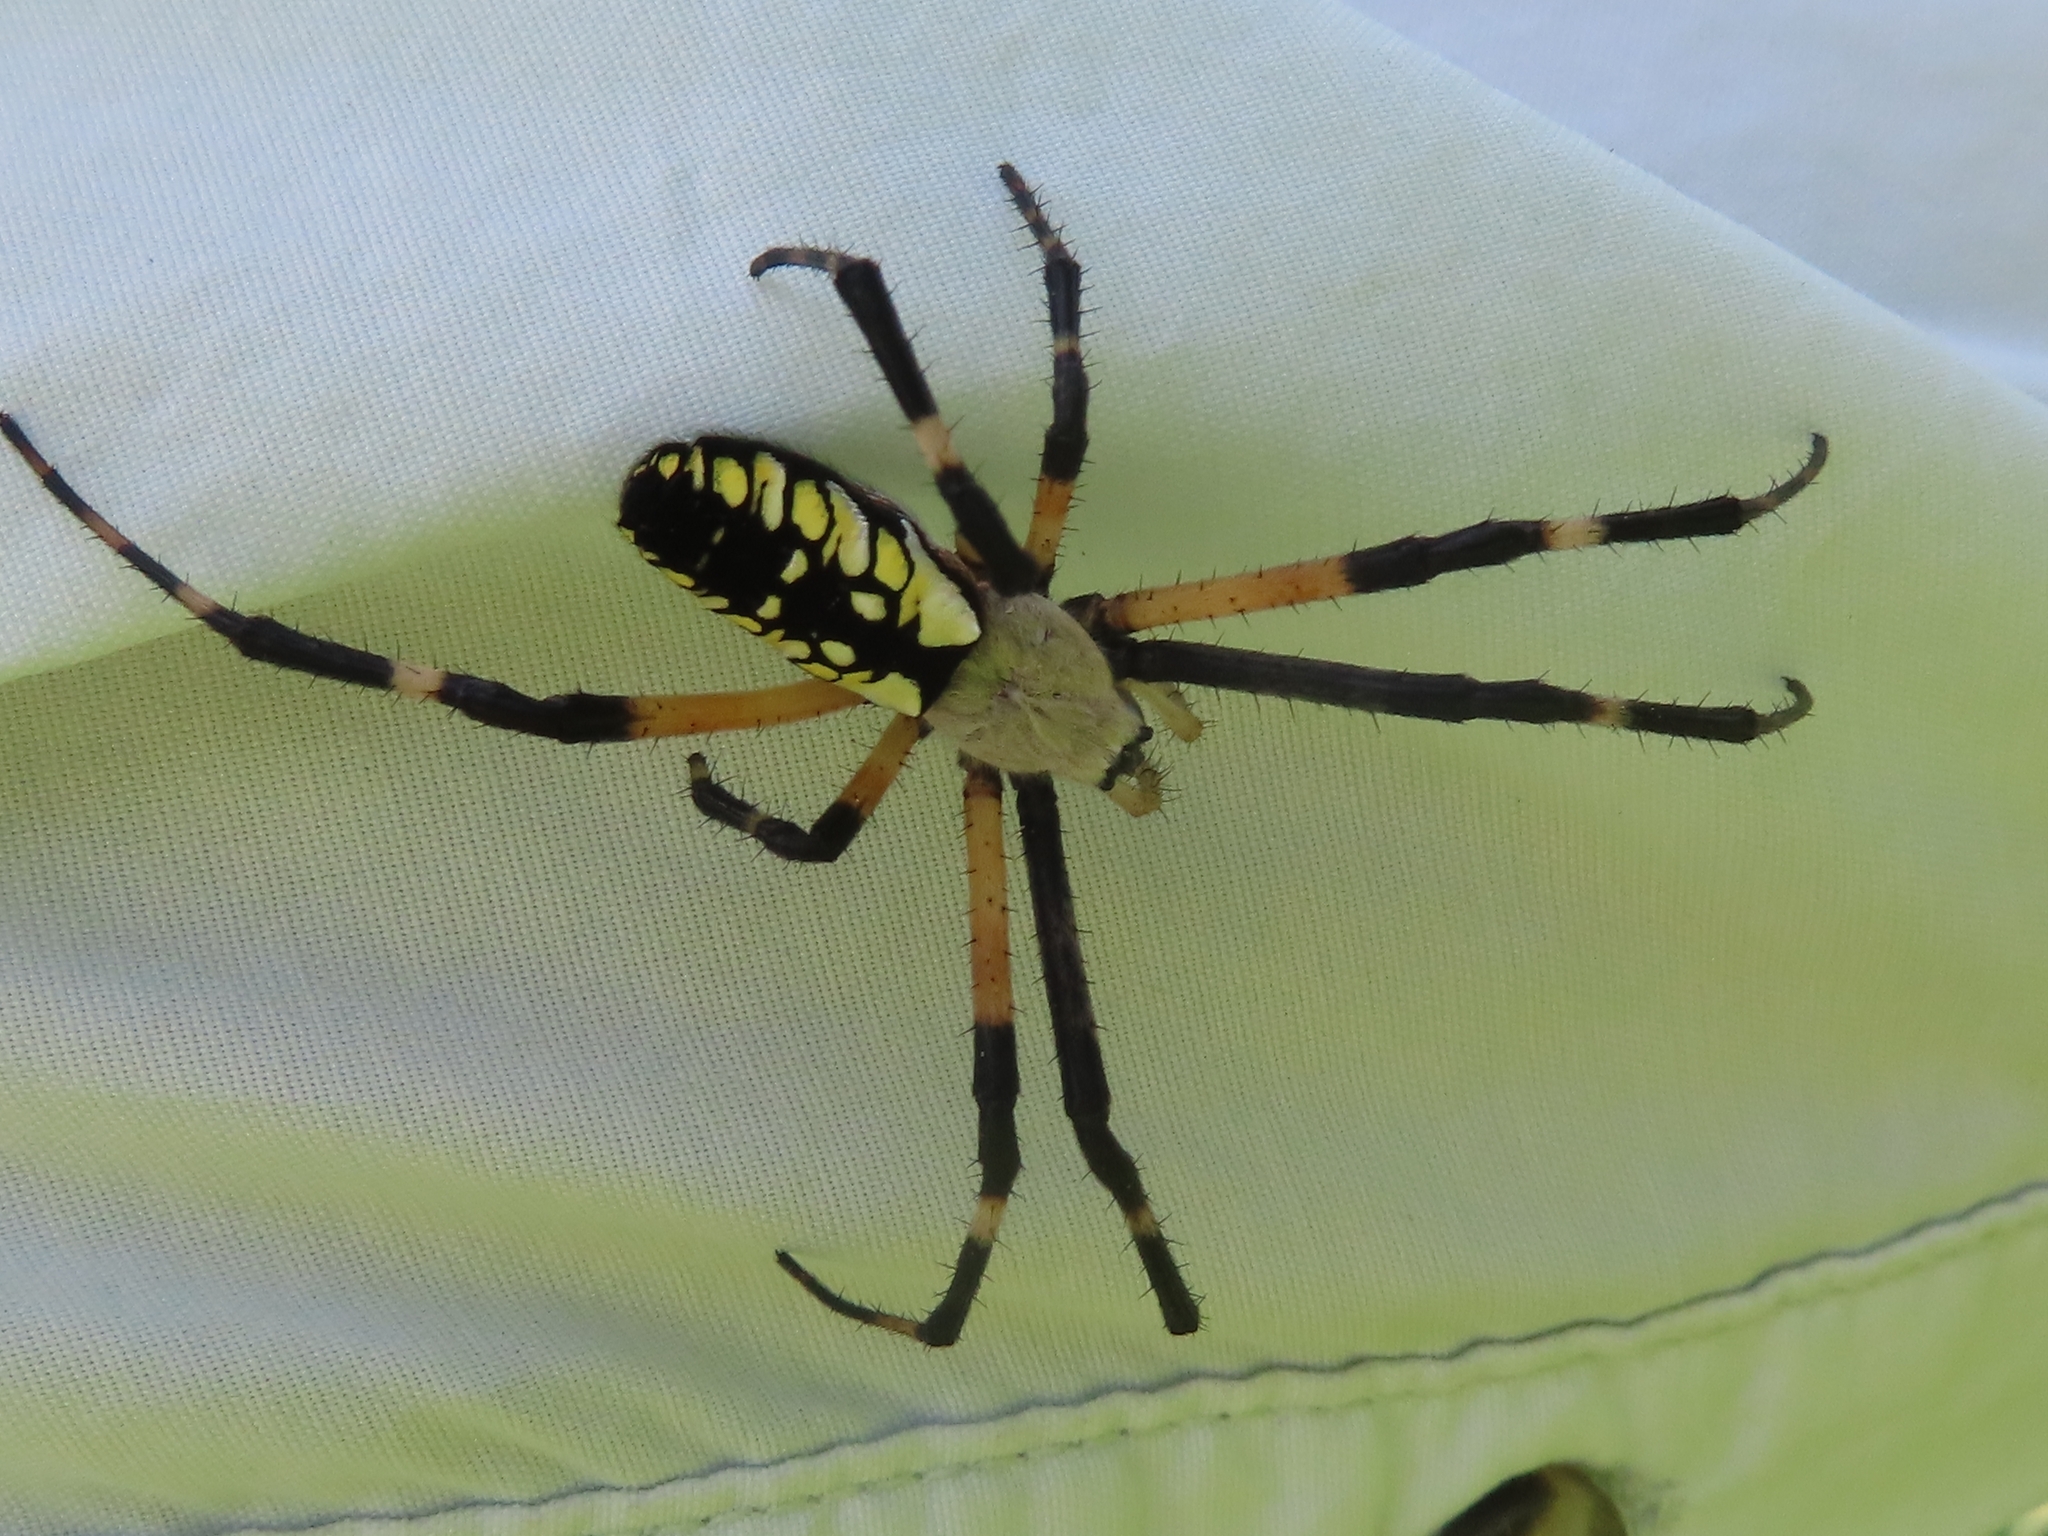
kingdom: Animalia
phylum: Arthropoda
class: Arachnida
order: Araneae
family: Araneidae
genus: Argiope
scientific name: Argiope aurantia
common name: Orb weavers
